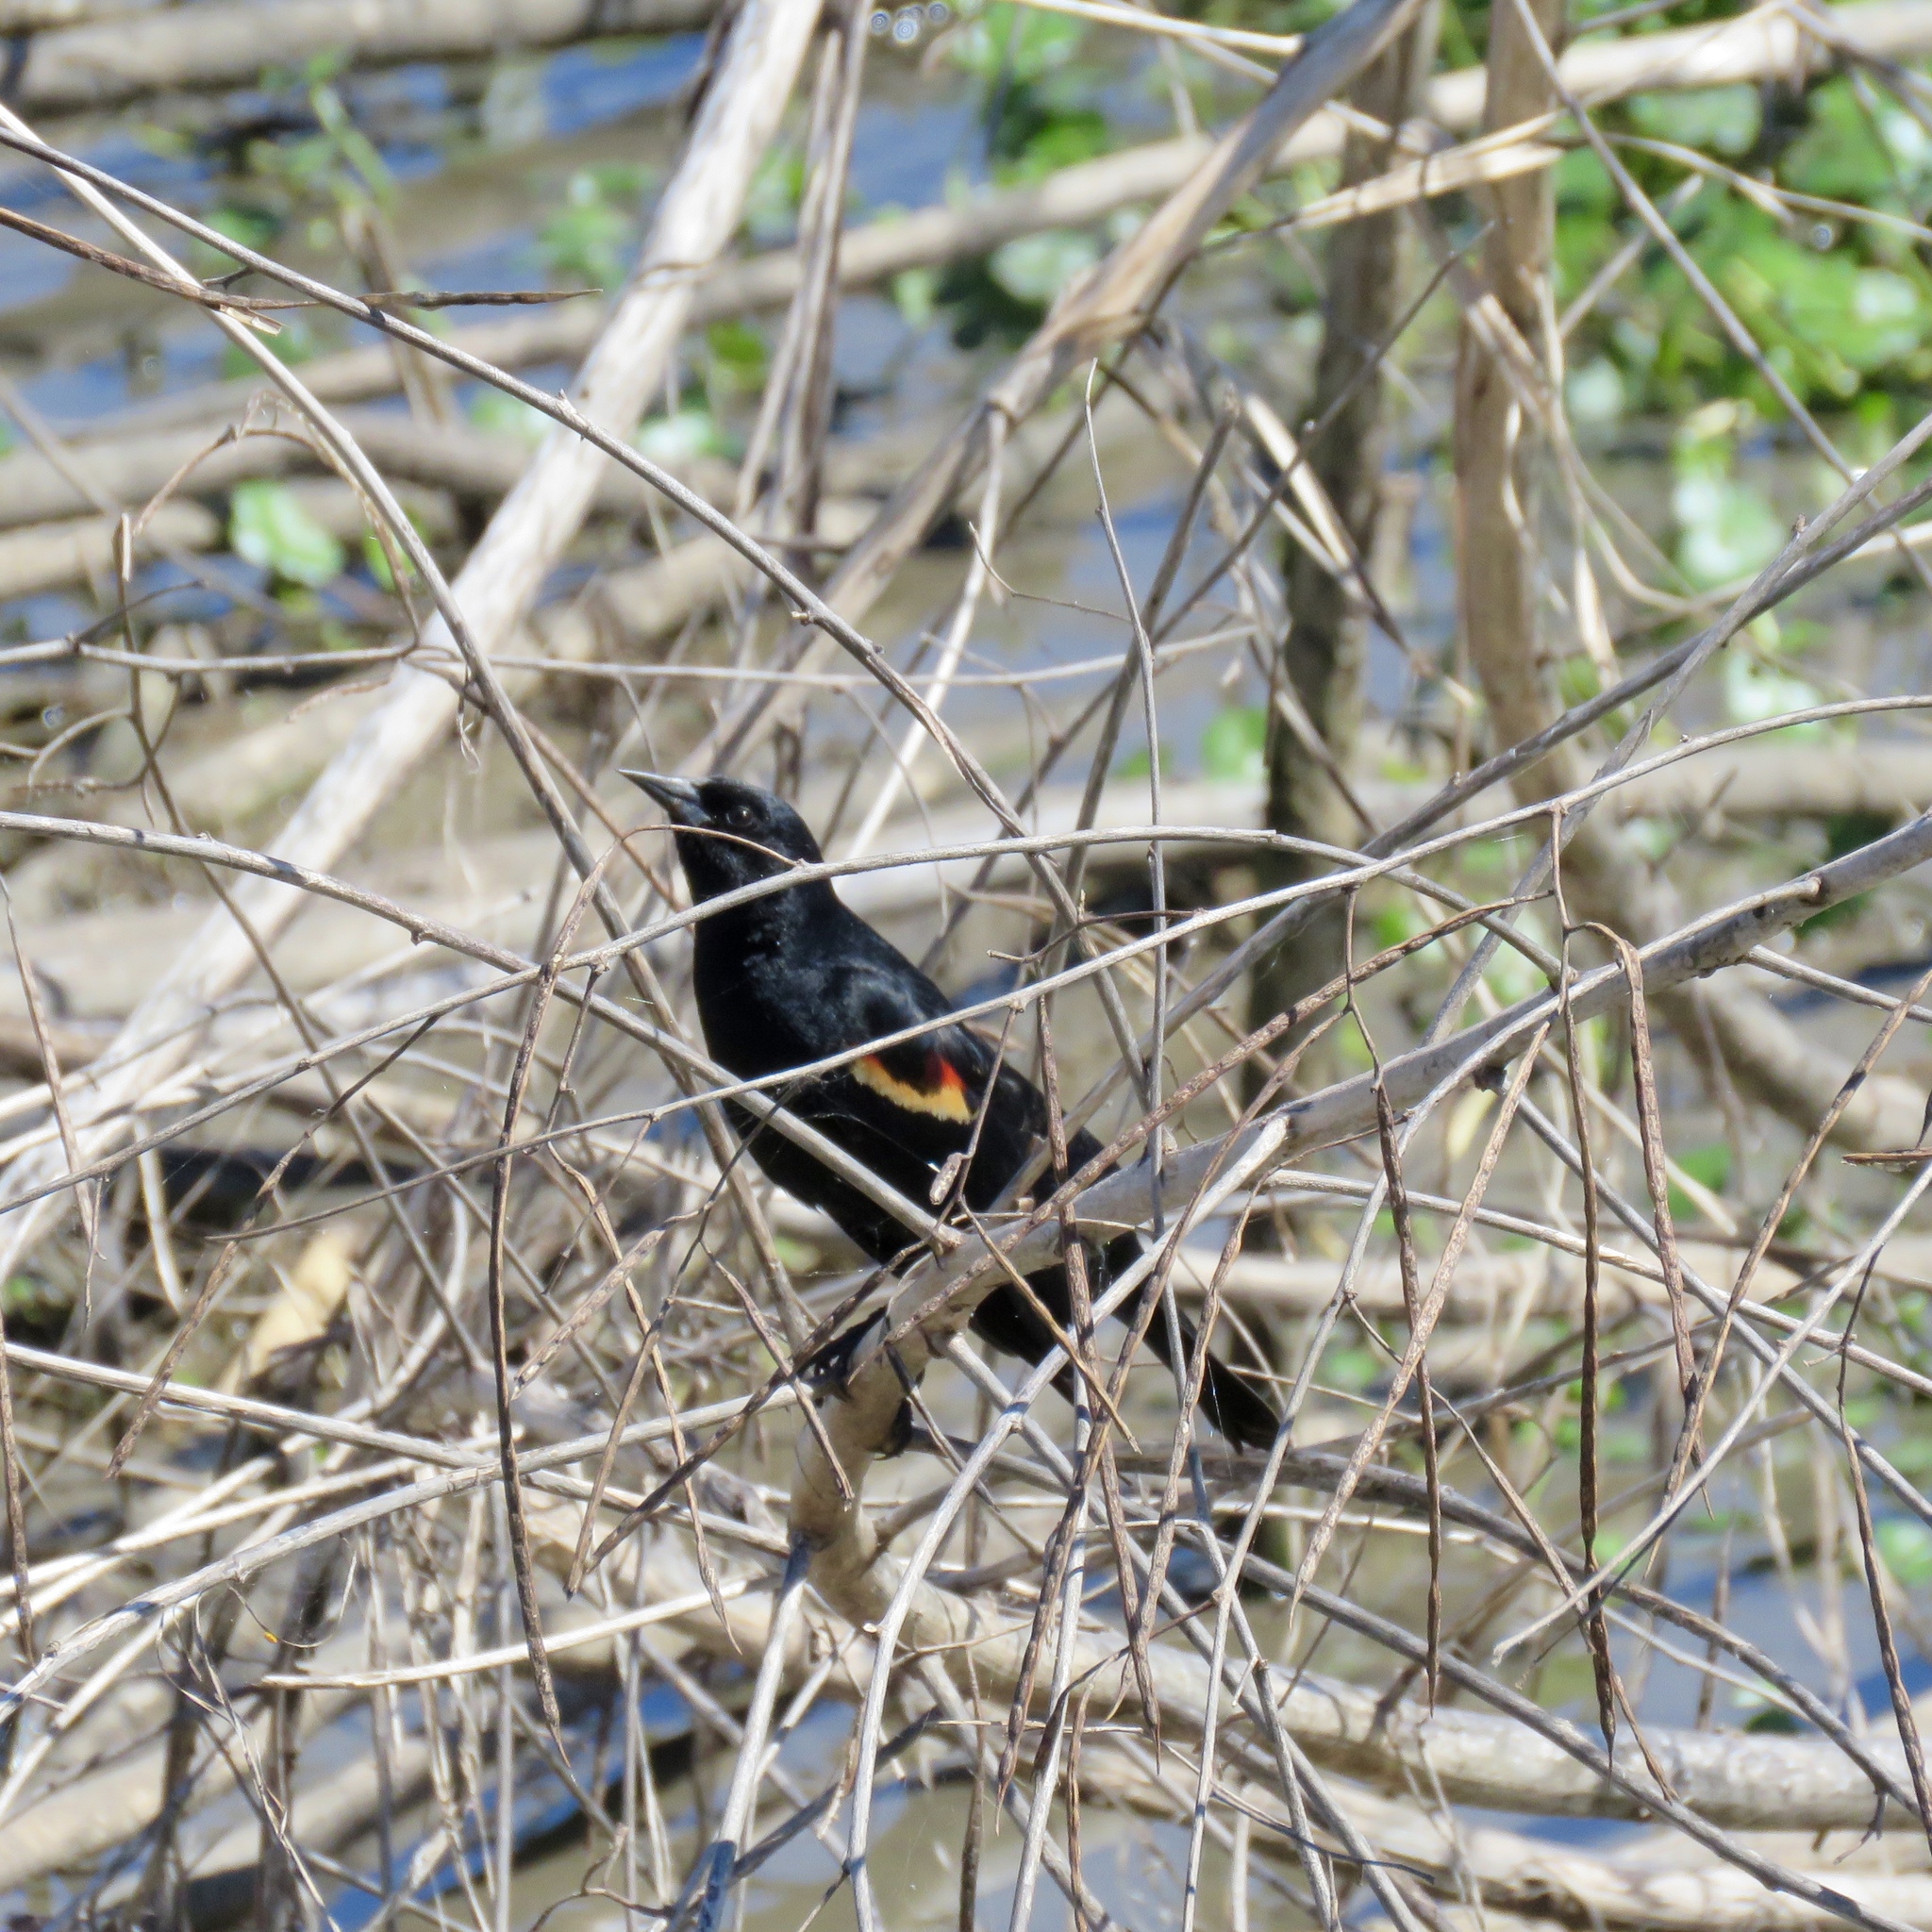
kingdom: Animalia
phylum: Chordata
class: Aves
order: Passeriformes
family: Icteridae
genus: Agelaius
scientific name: Agelaius phoeniceus
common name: Red-winged blackbird
